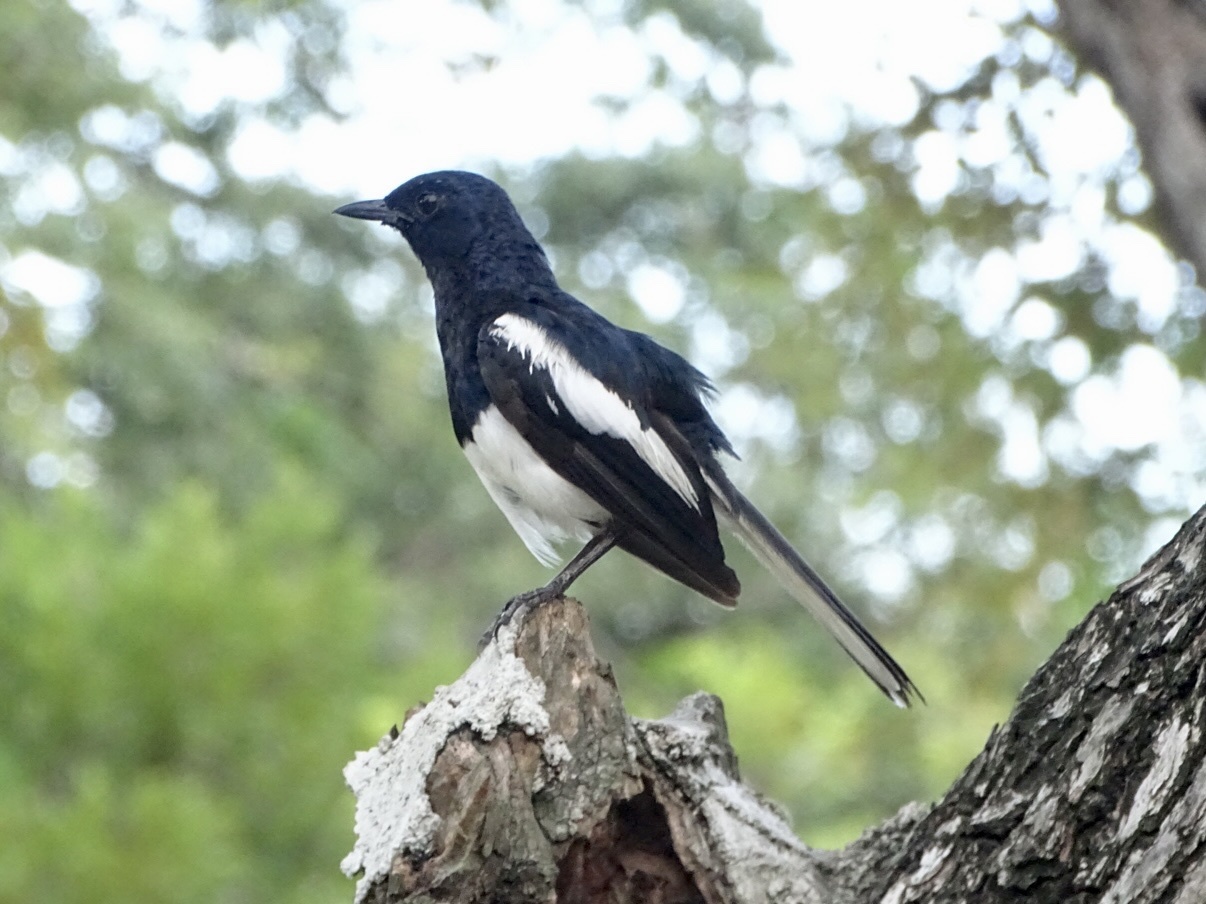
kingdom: Animalia
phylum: Chordata
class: Aves
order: Passeriformes
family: Muscicapidae
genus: Copsychus
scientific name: Copsychus saularis
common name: Oriental magpie-robin
